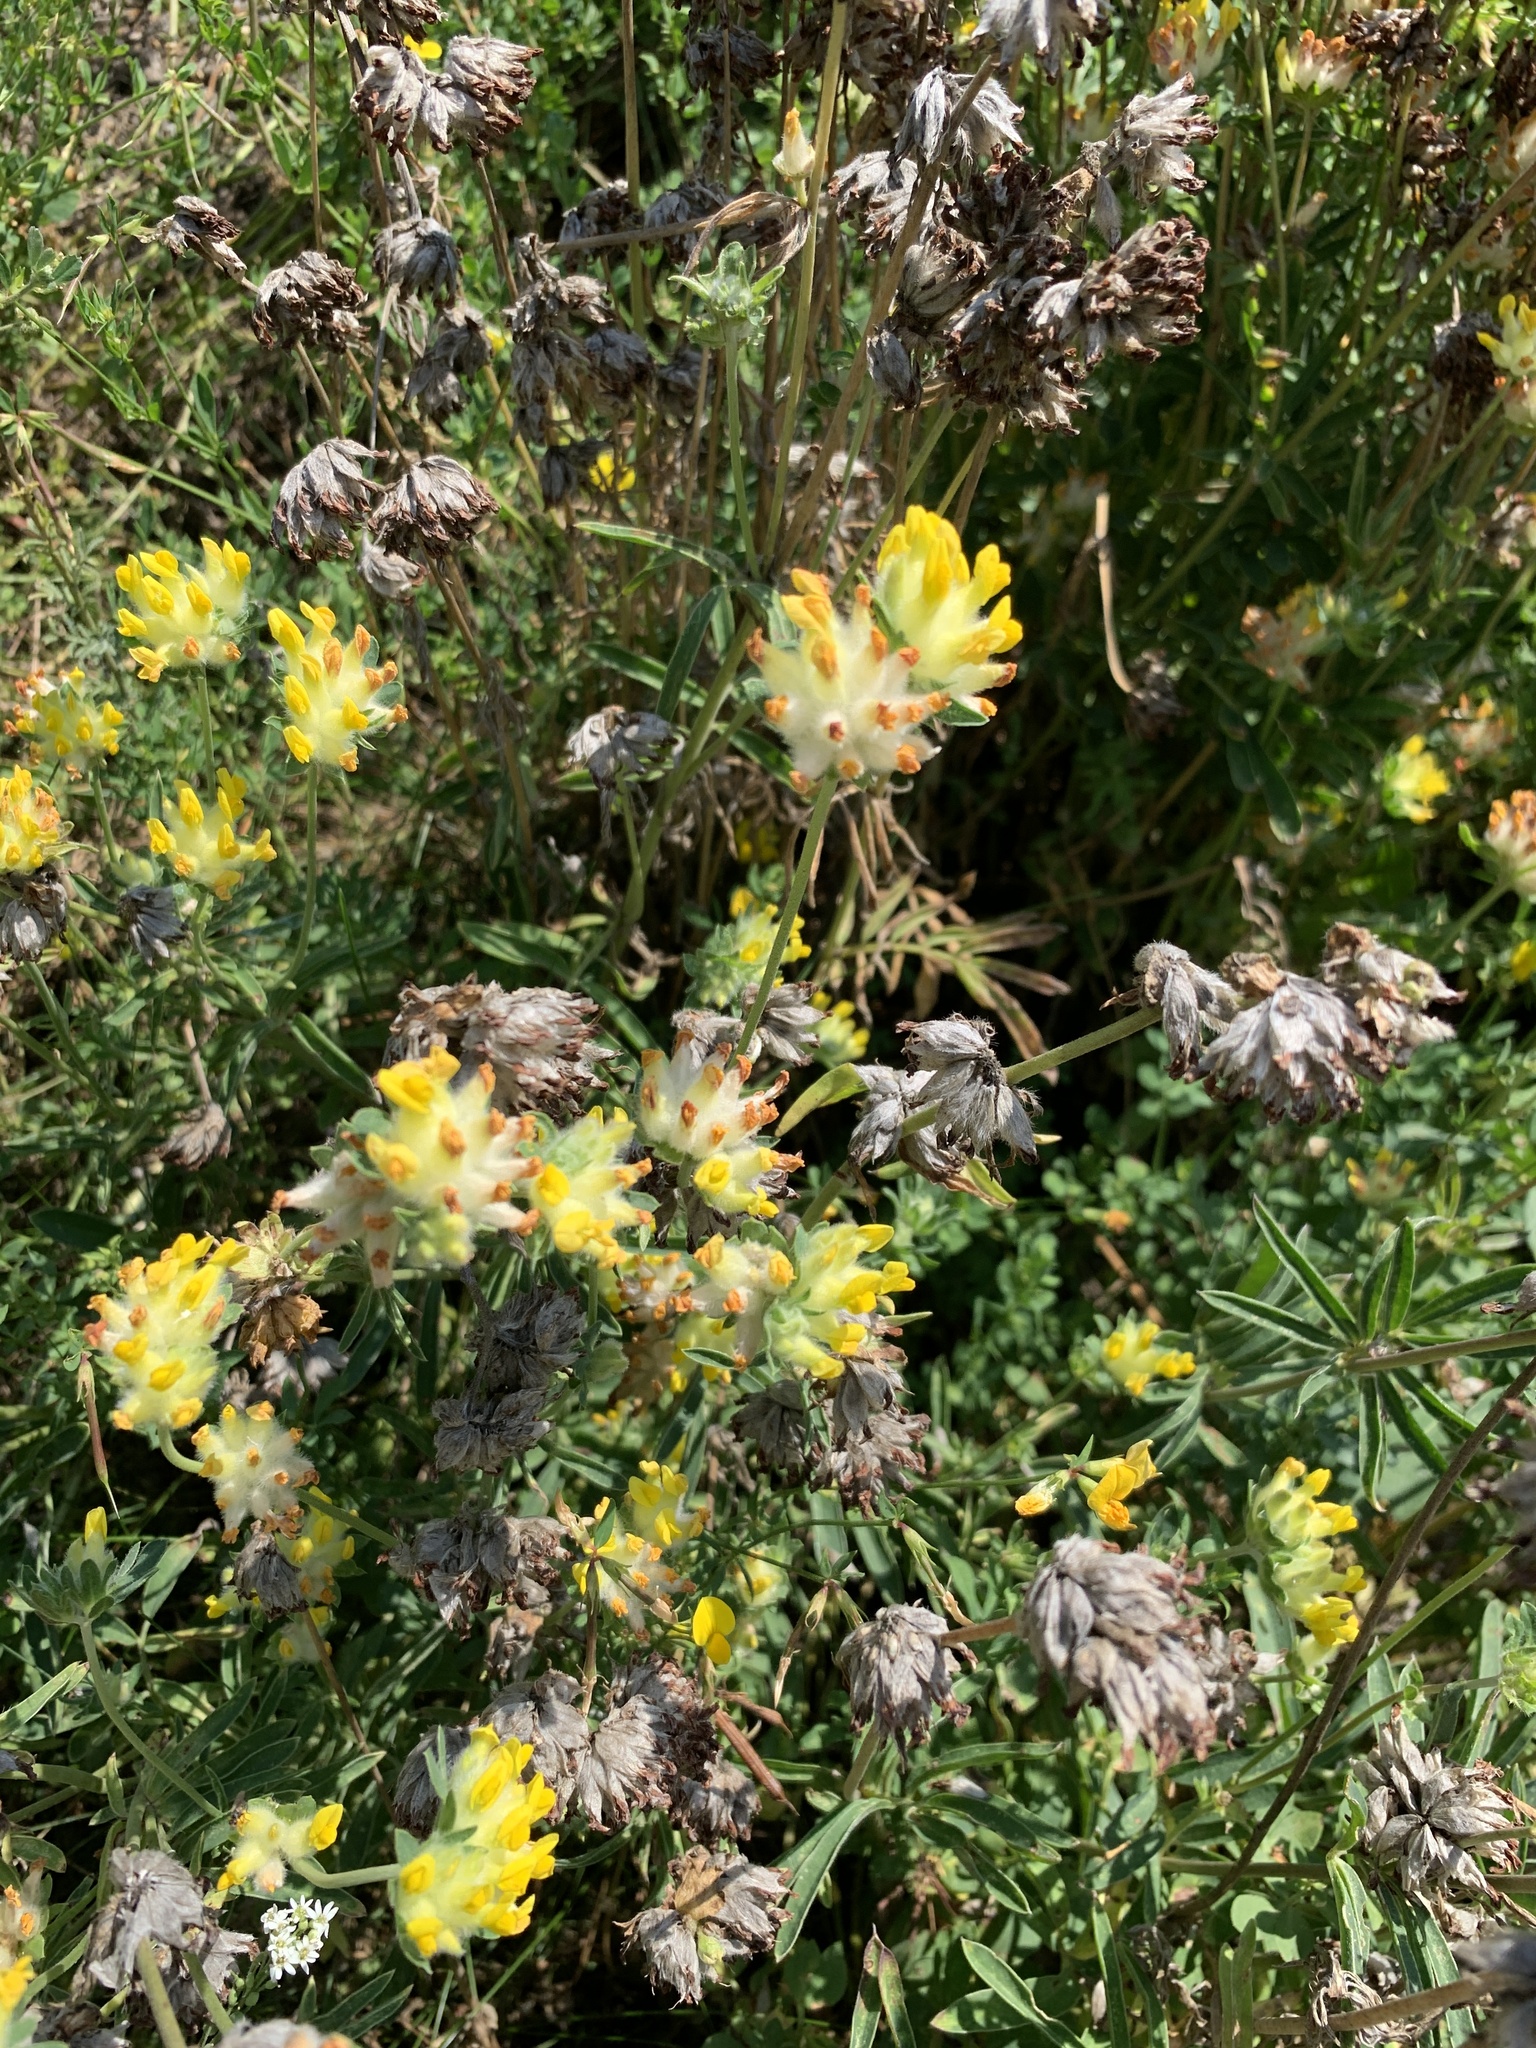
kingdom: Plantae
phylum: Tracheophyta
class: Magnoliopsida
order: Fabales
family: Fabaceae
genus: Anthyllis
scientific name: Anthyllis vulneraria
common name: Kidney vetch
